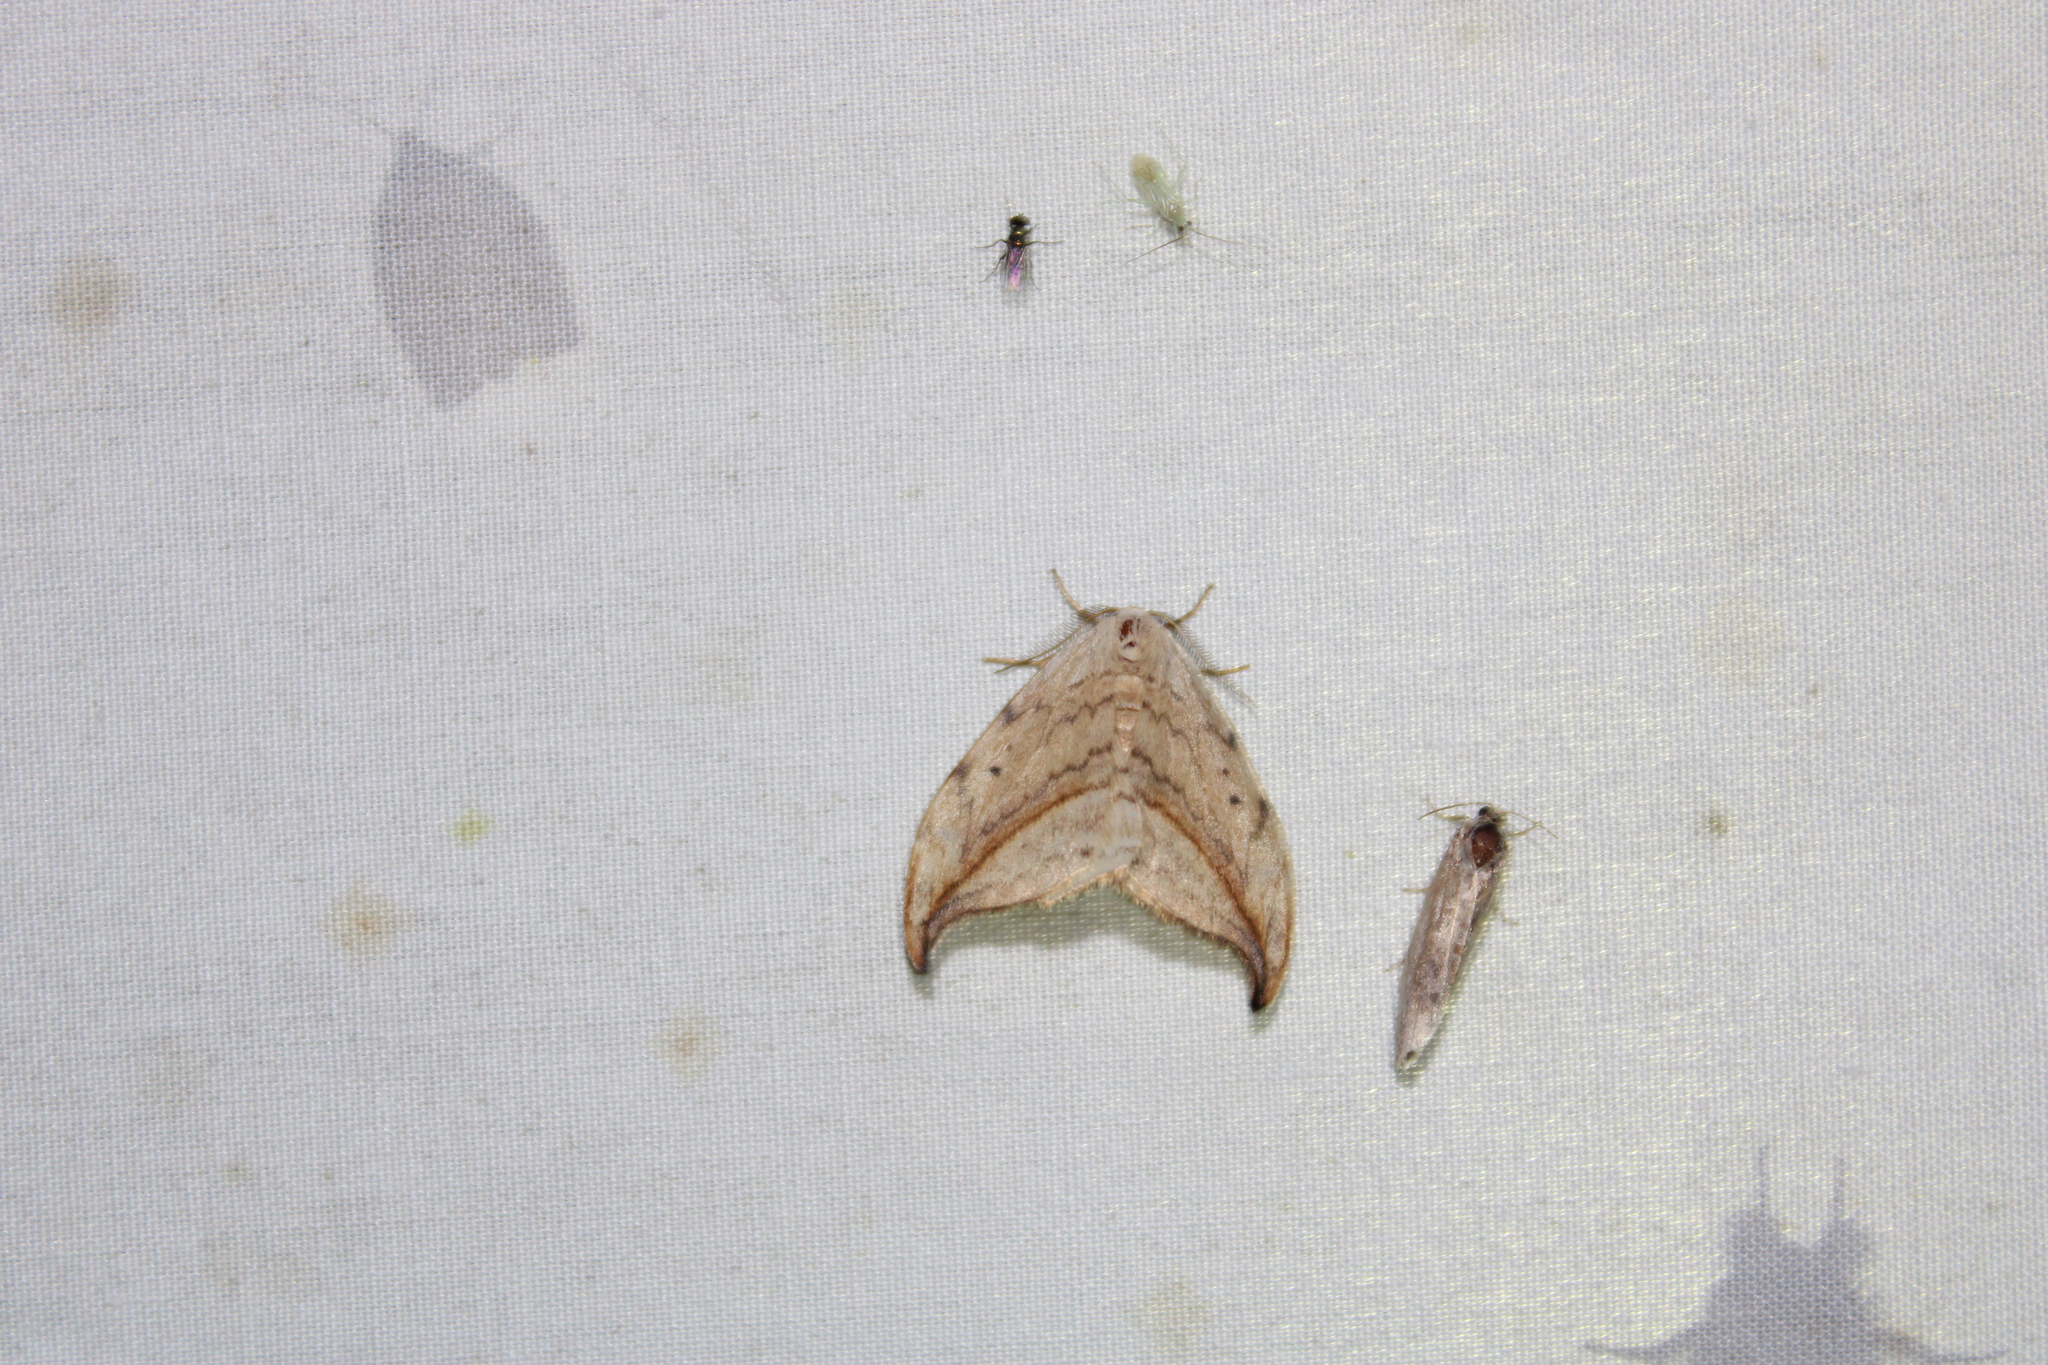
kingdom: Animalia
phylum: Arthropoda
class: Insecta
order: Lepidoptera
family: Drepanidae
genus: Drepana
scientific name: Drepana arcuata
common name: Arched hooktip moth
